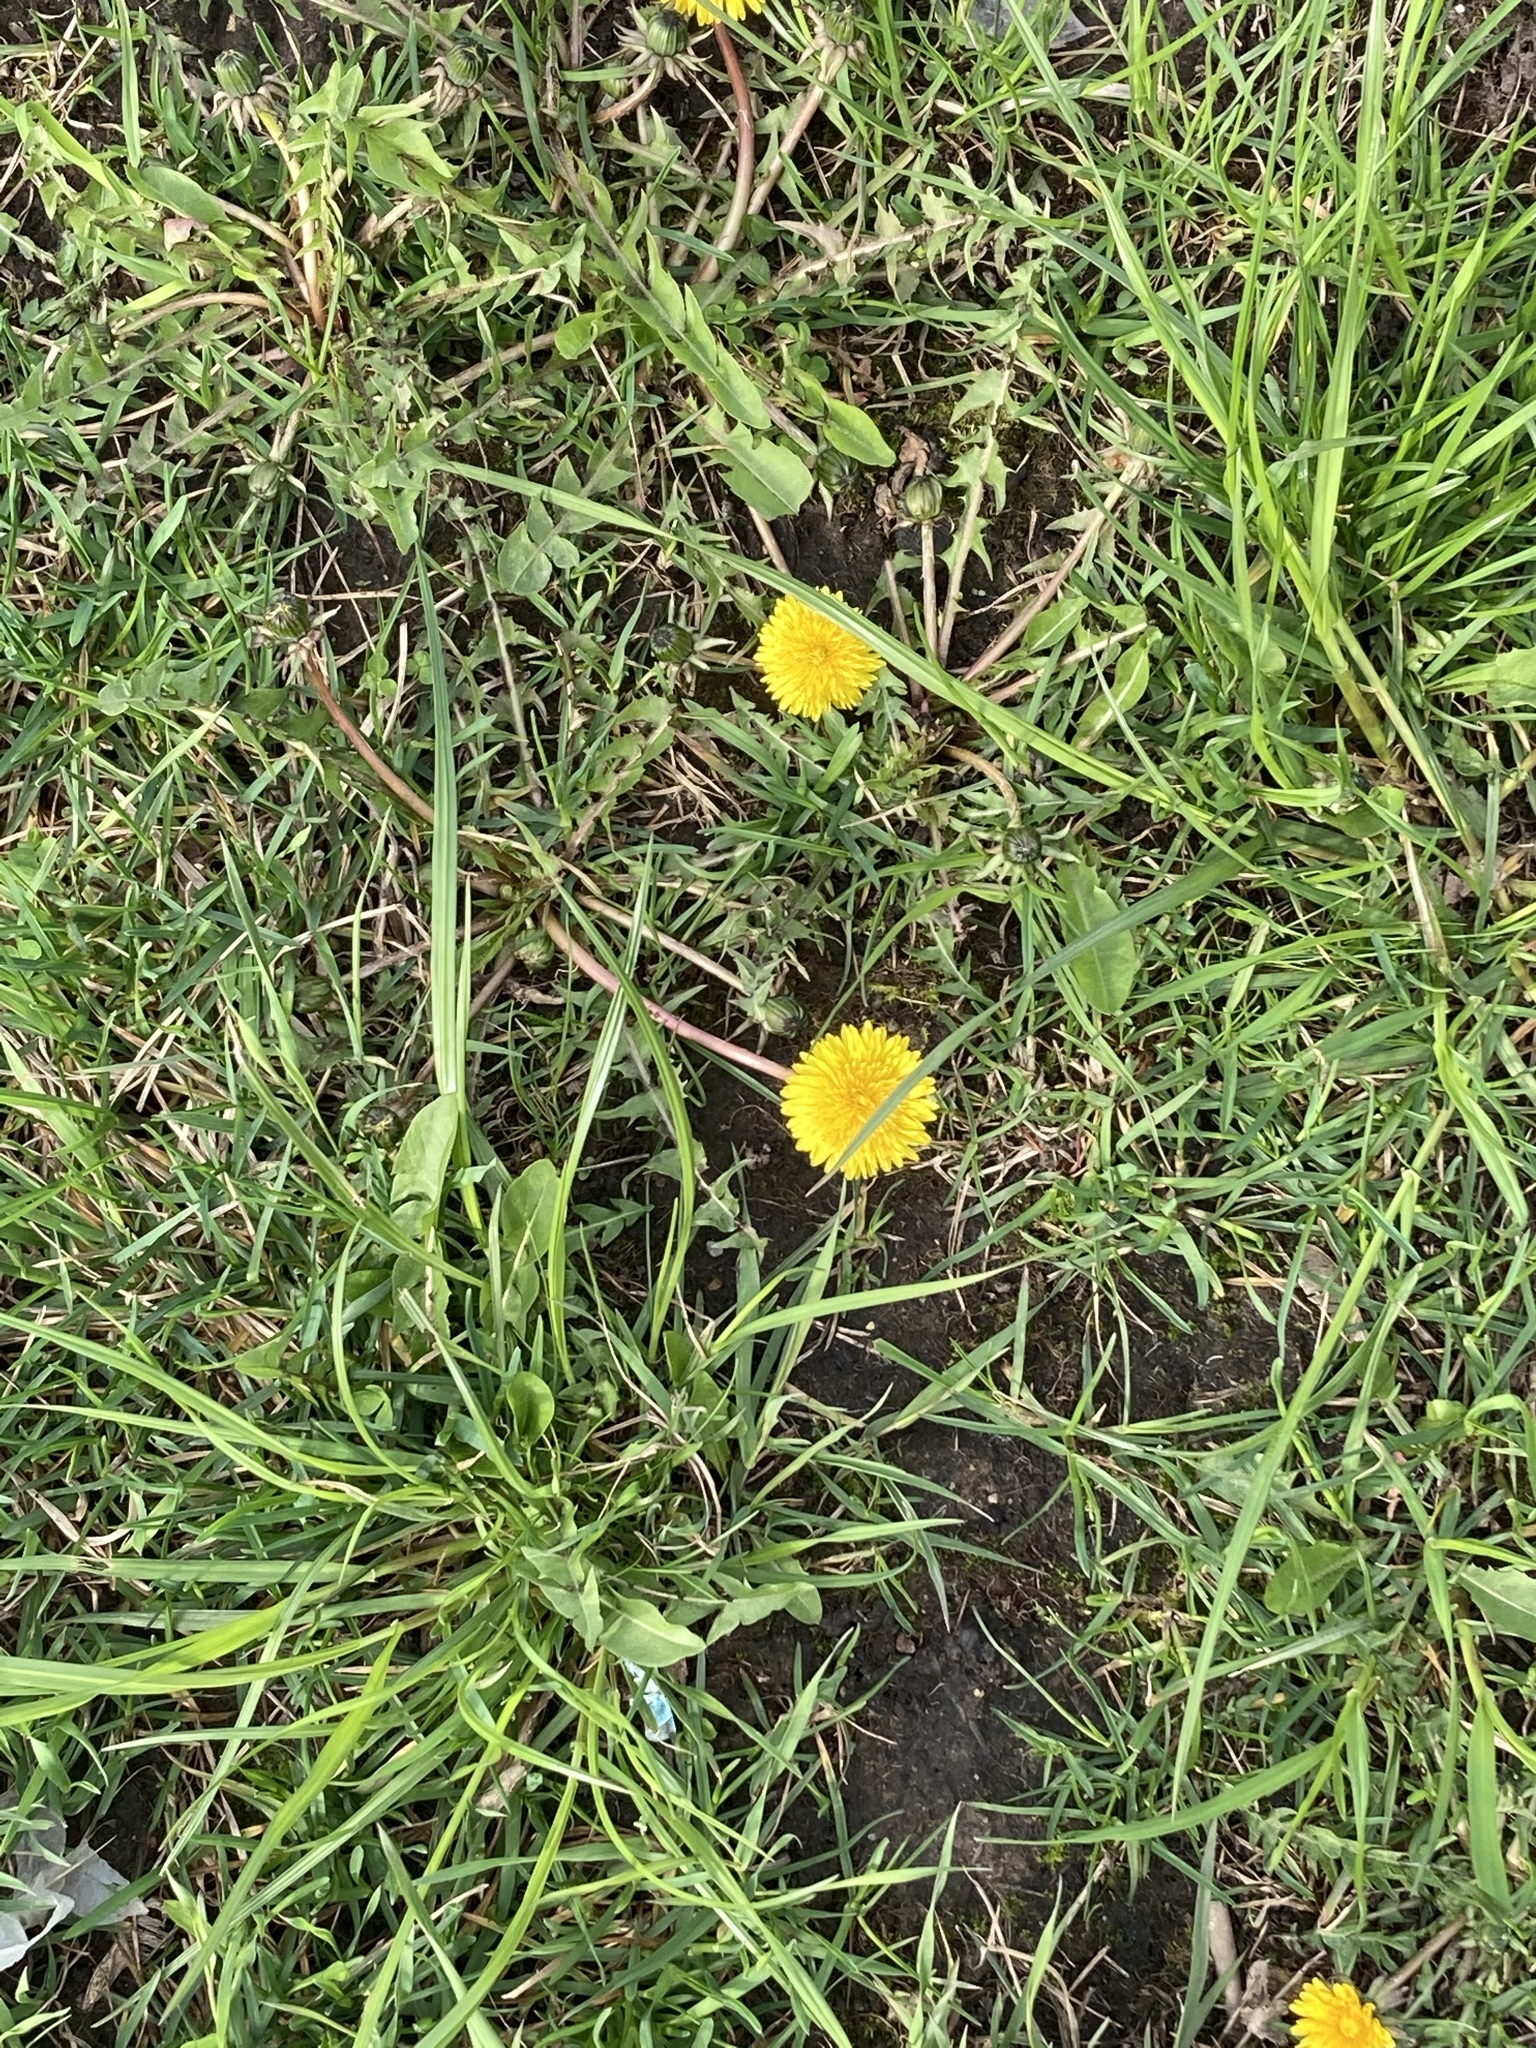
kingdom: Plantae
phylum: Tracheophyta
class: Magnoliopsida
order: Asterales
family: Asteraceae
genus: Taraxacum
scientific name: Taraxacum officinale
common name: Common dandelion
